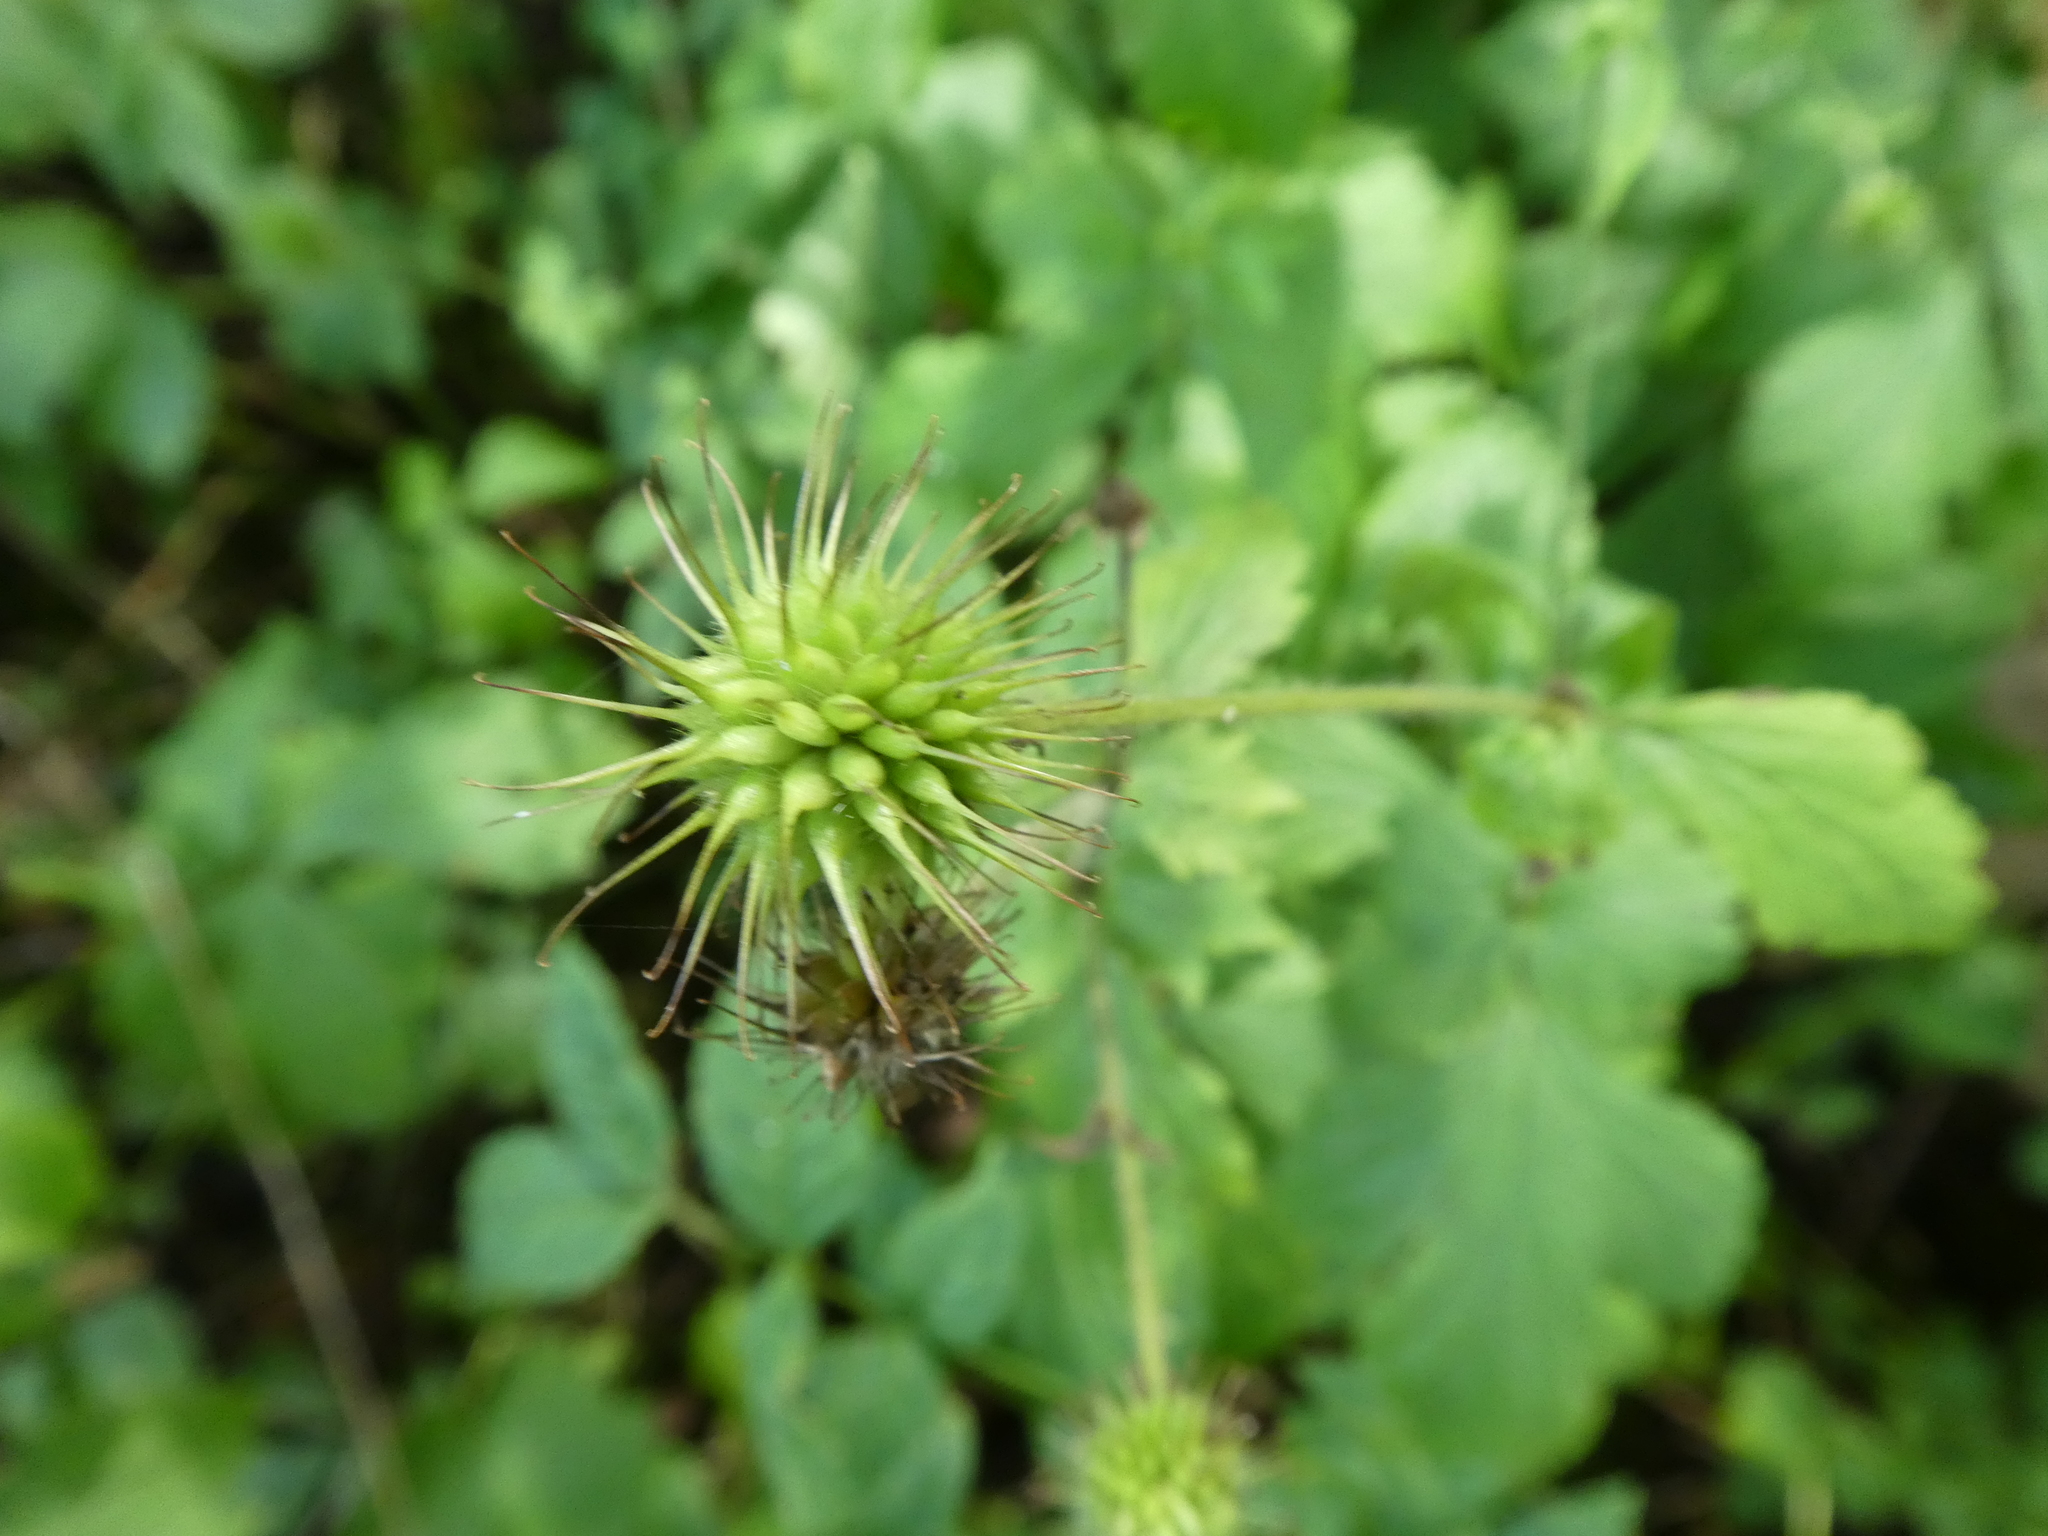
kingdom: Plantae
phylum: Tracheophyta
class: Magnoliopsida
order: Rosales
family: Rosaceae
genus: Geum
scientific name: Geum urbanum
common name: Wood avens
